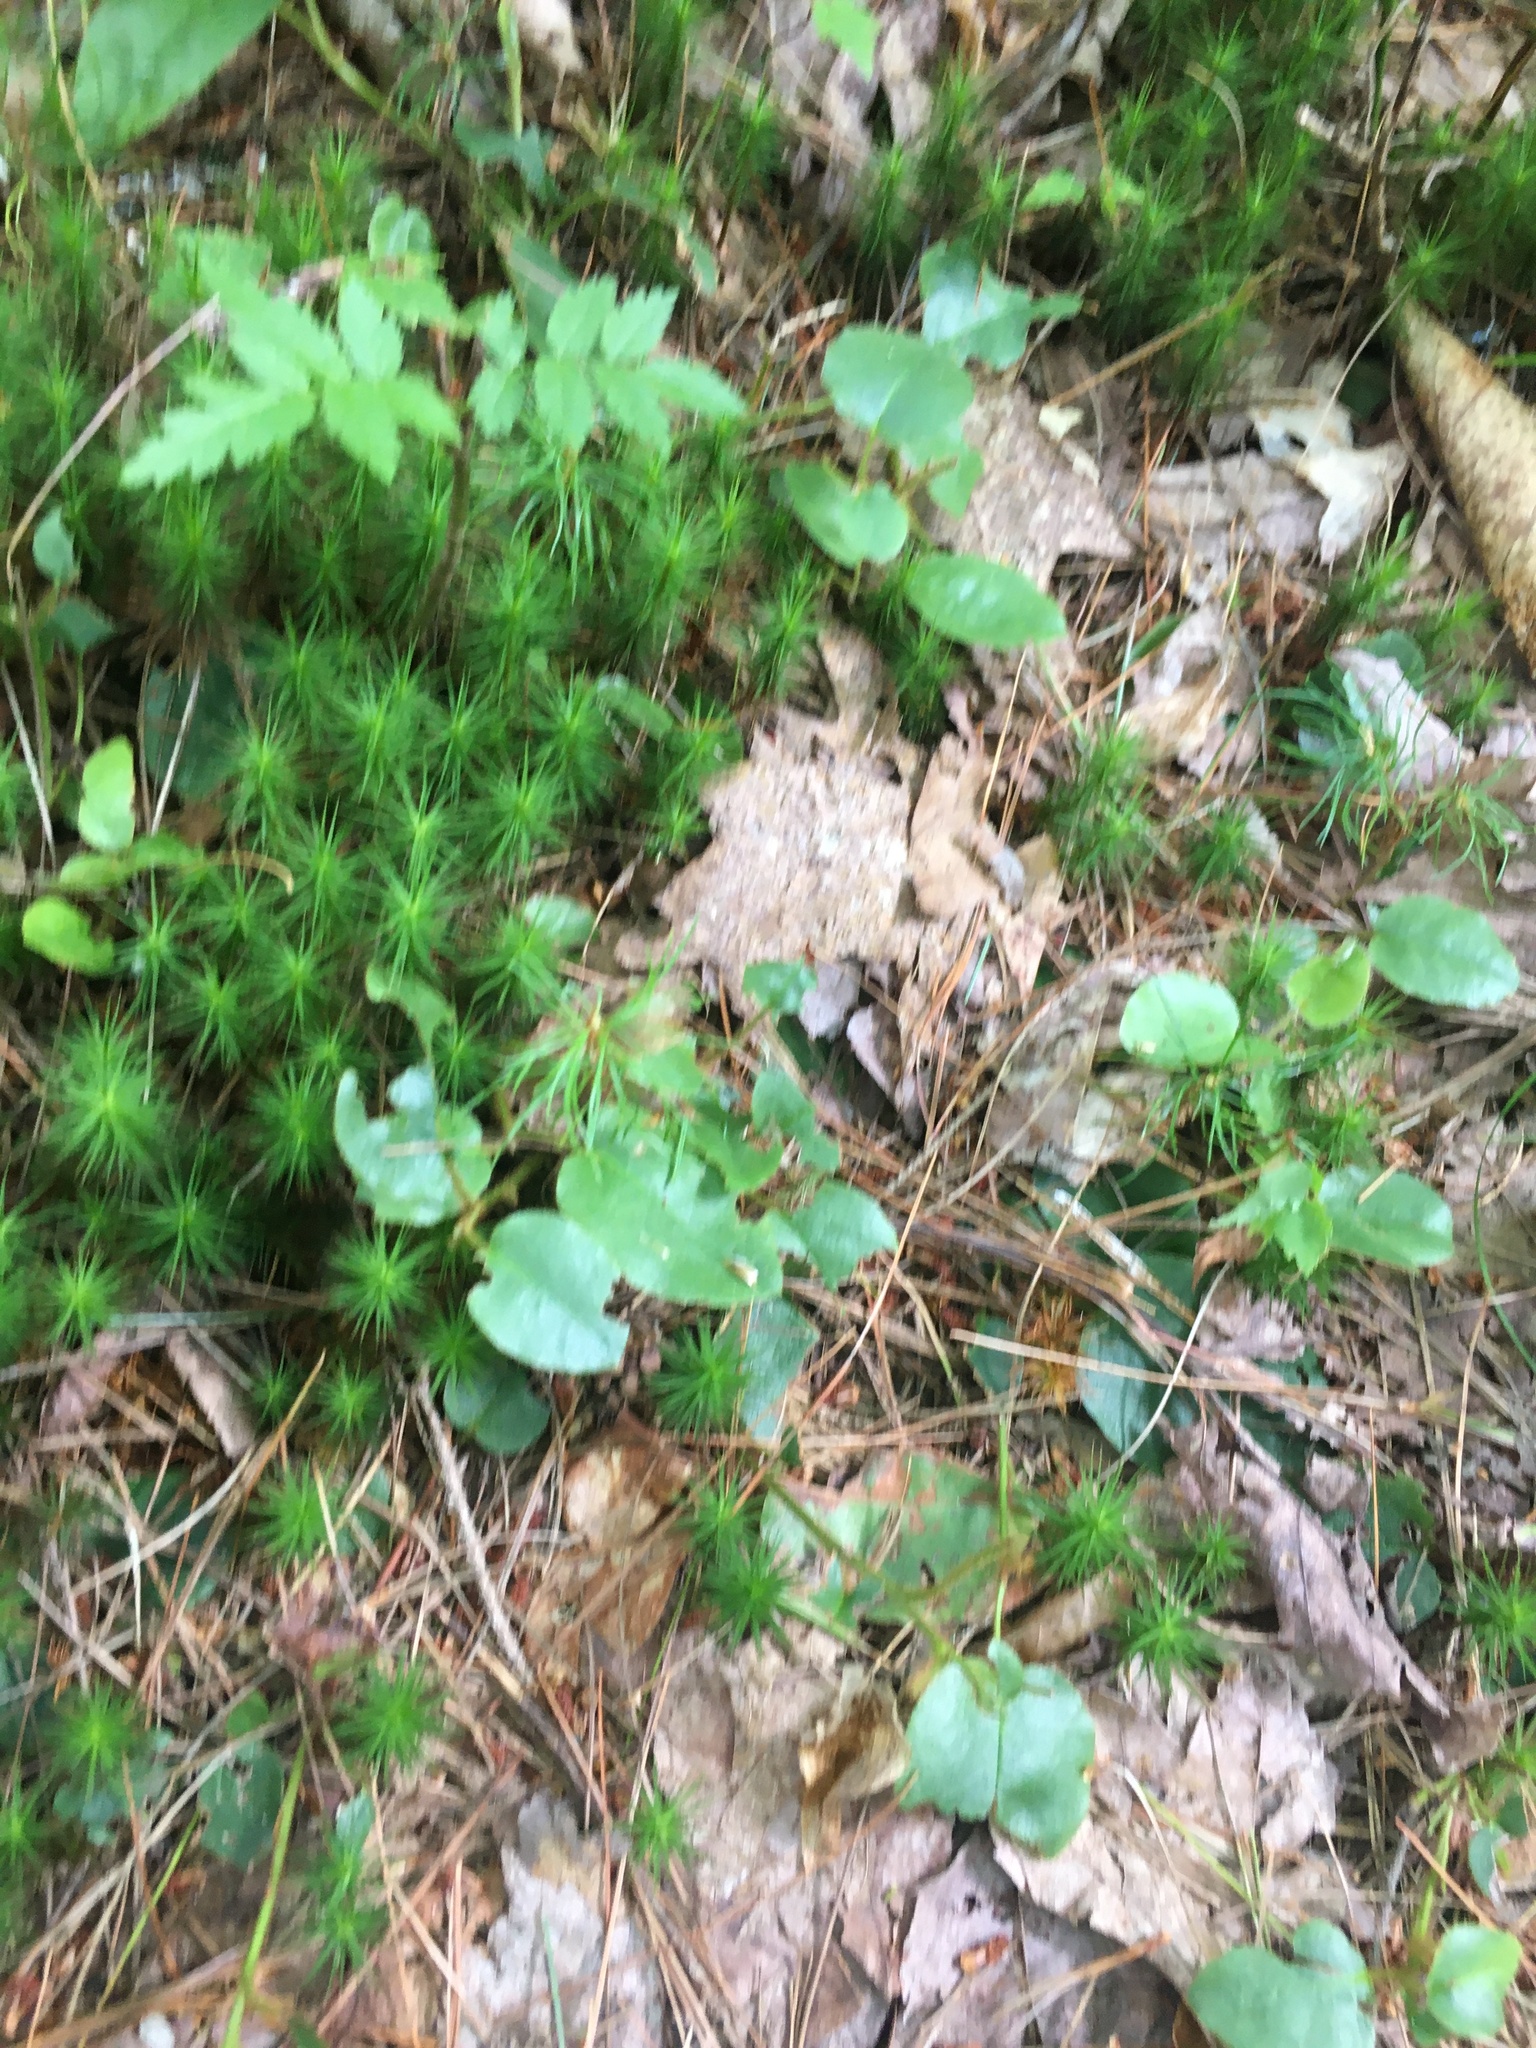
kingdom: Plantae
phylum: Tracheophyta
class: Magnoliopsida
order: Ericales
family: Ericaceae
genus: Epigaea
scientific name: Epigaea repens
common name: Gravelroot
